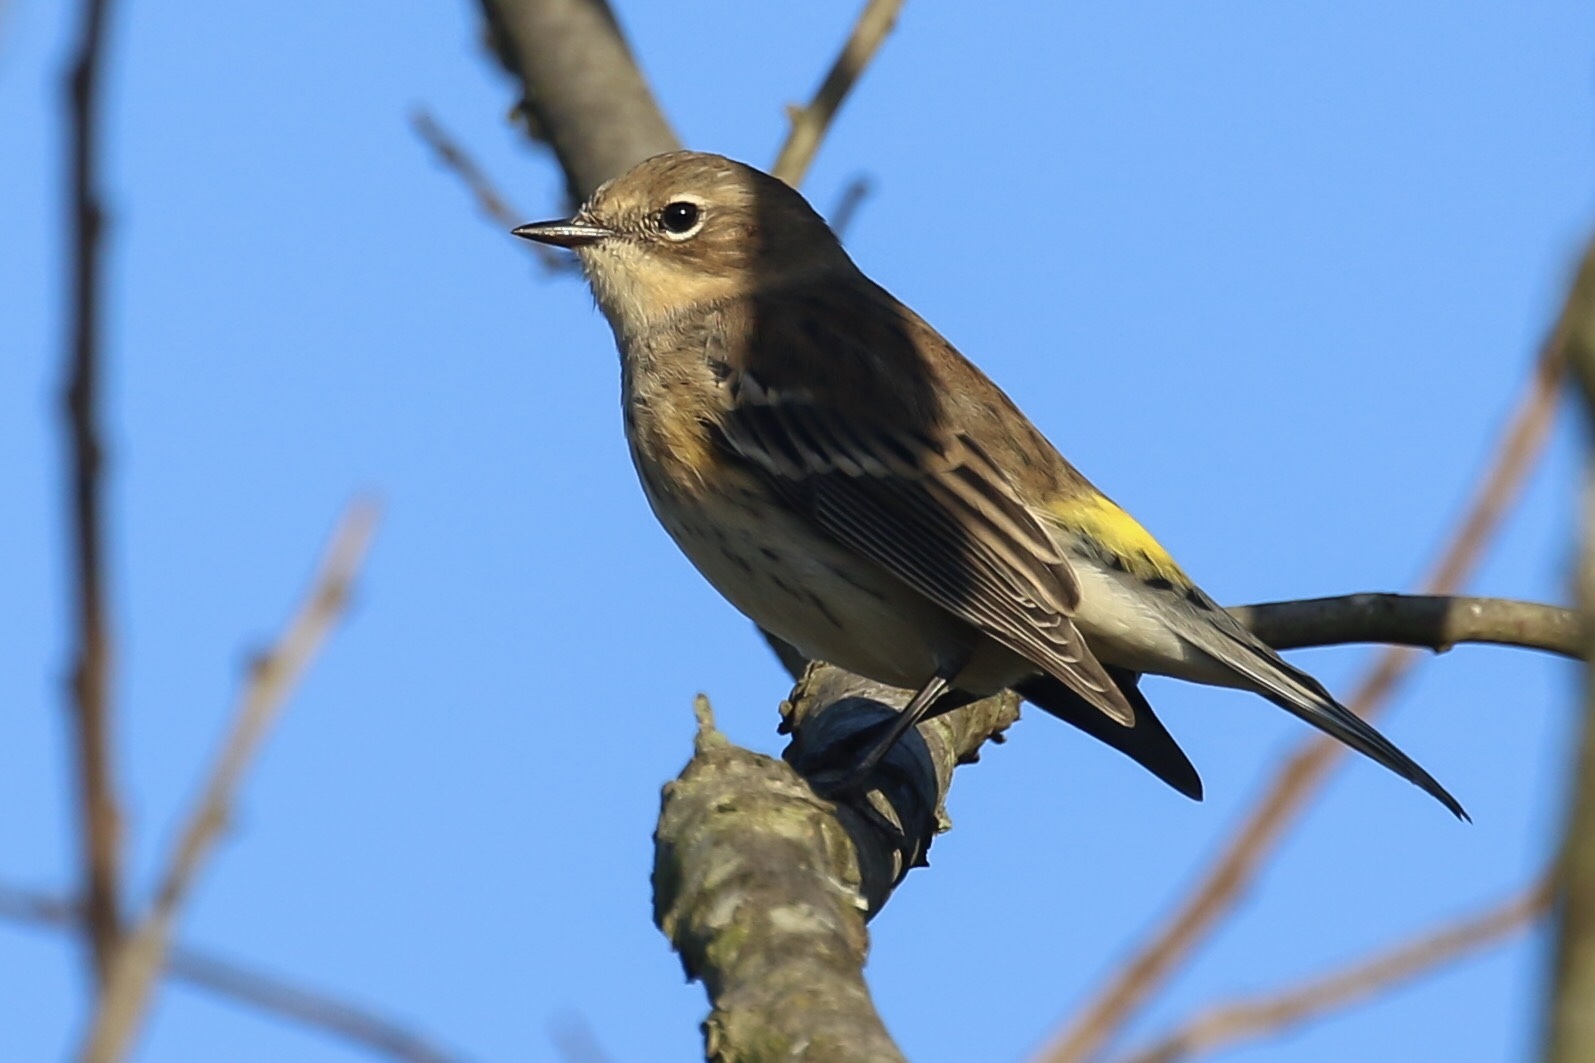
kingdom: Animalia
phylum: Chordata
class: Aves
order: Passeriformes
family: Parulidae
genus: Setophaga
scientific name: Setophaga coronata
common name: Myrtle warbler
